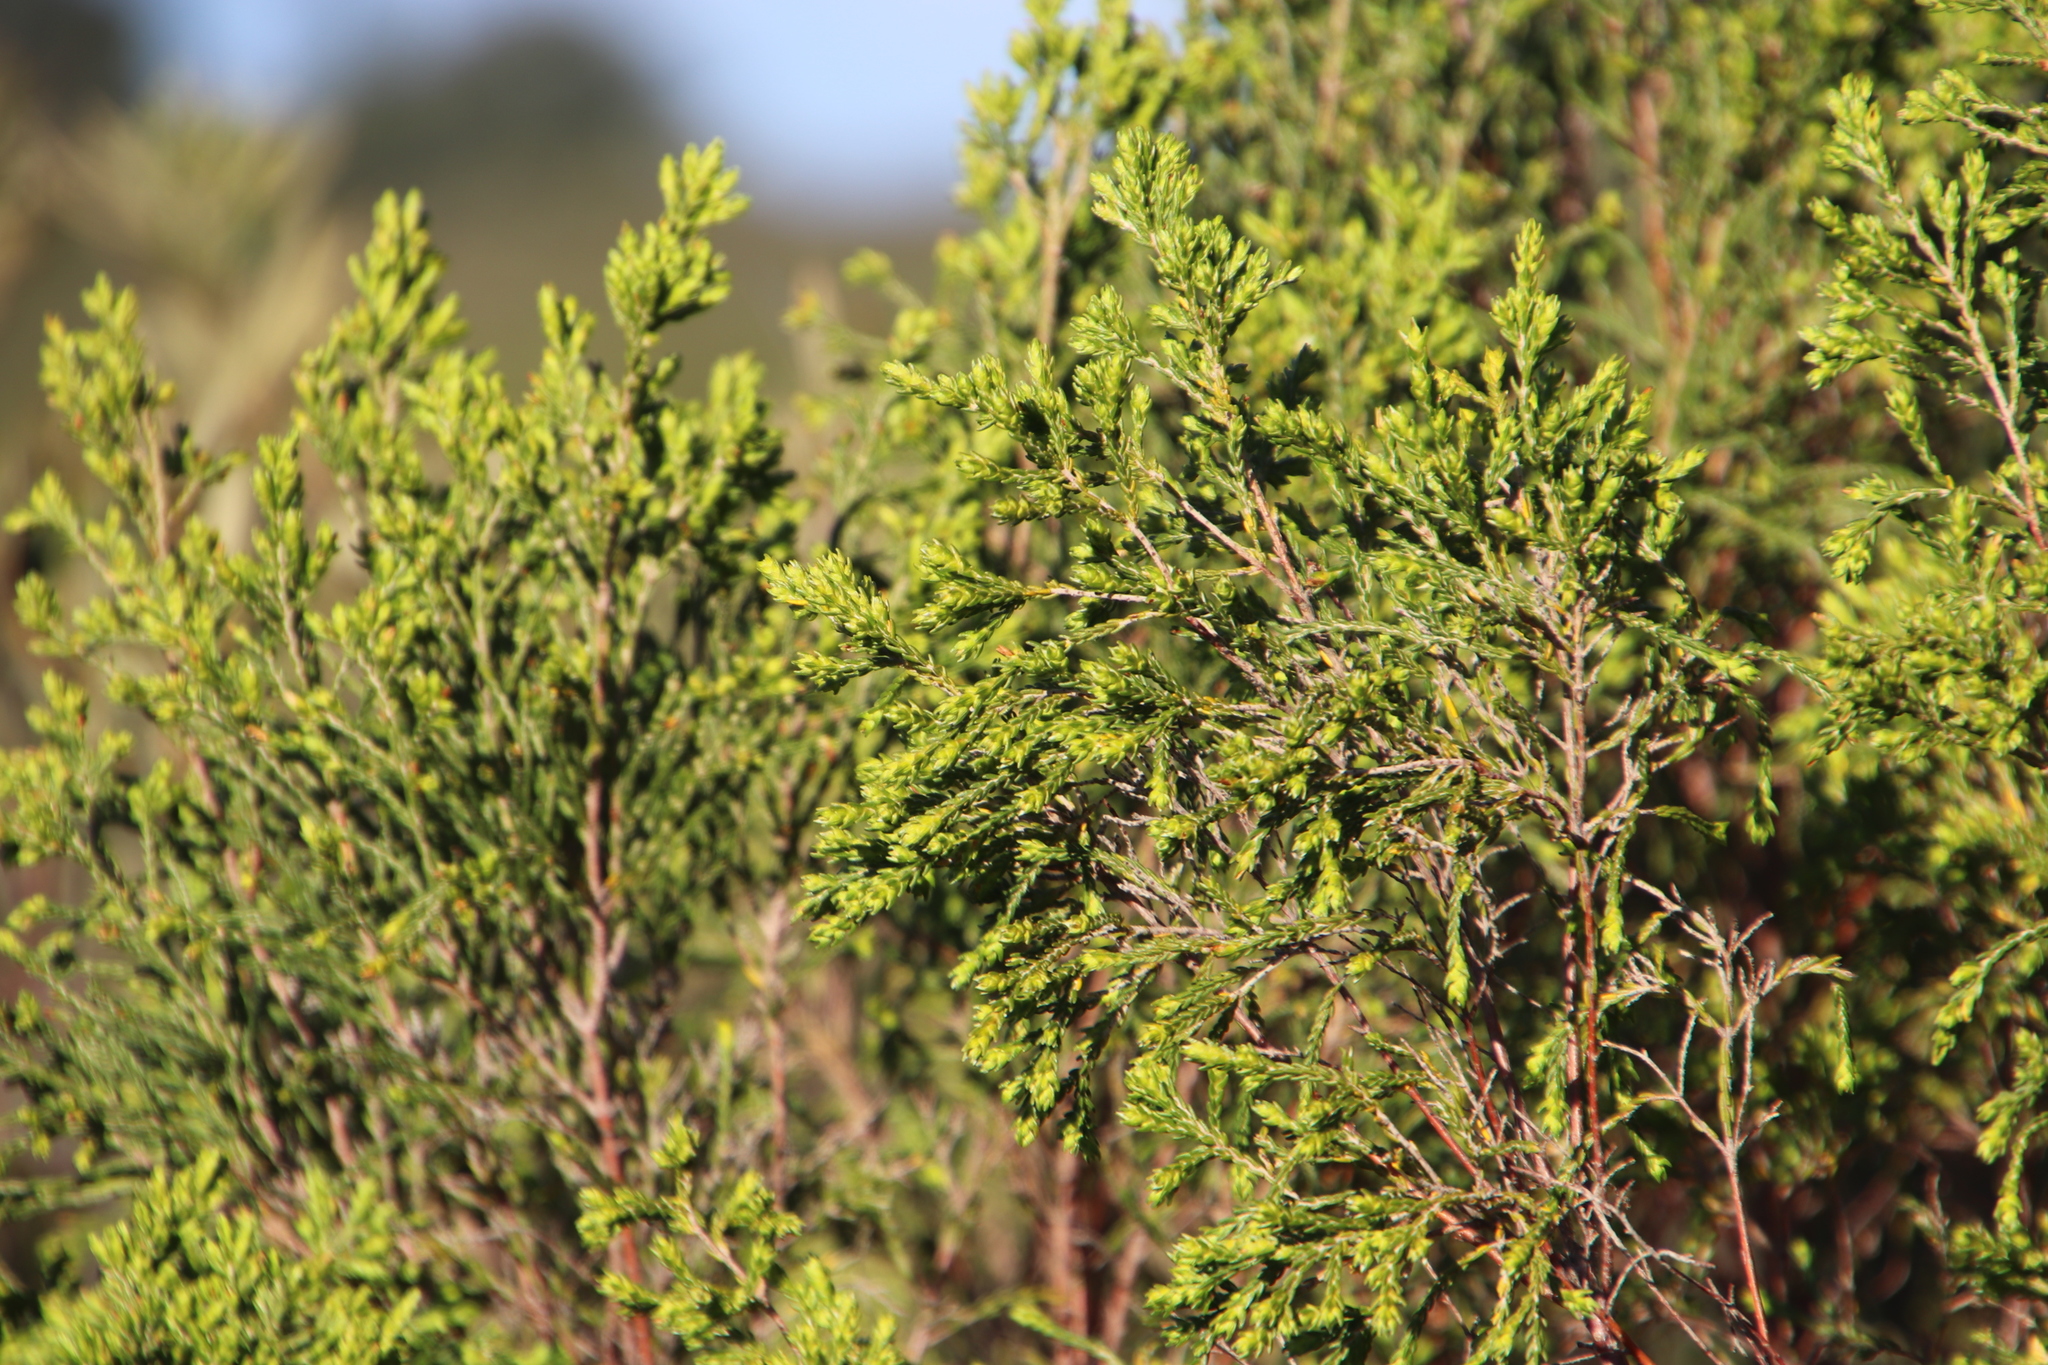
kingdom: Plantae
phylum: Tracheophyta
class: Magnoliopsida
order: Malvales
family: Thymelaeaceae
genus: Passerina
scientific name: Passerina corymbosa
